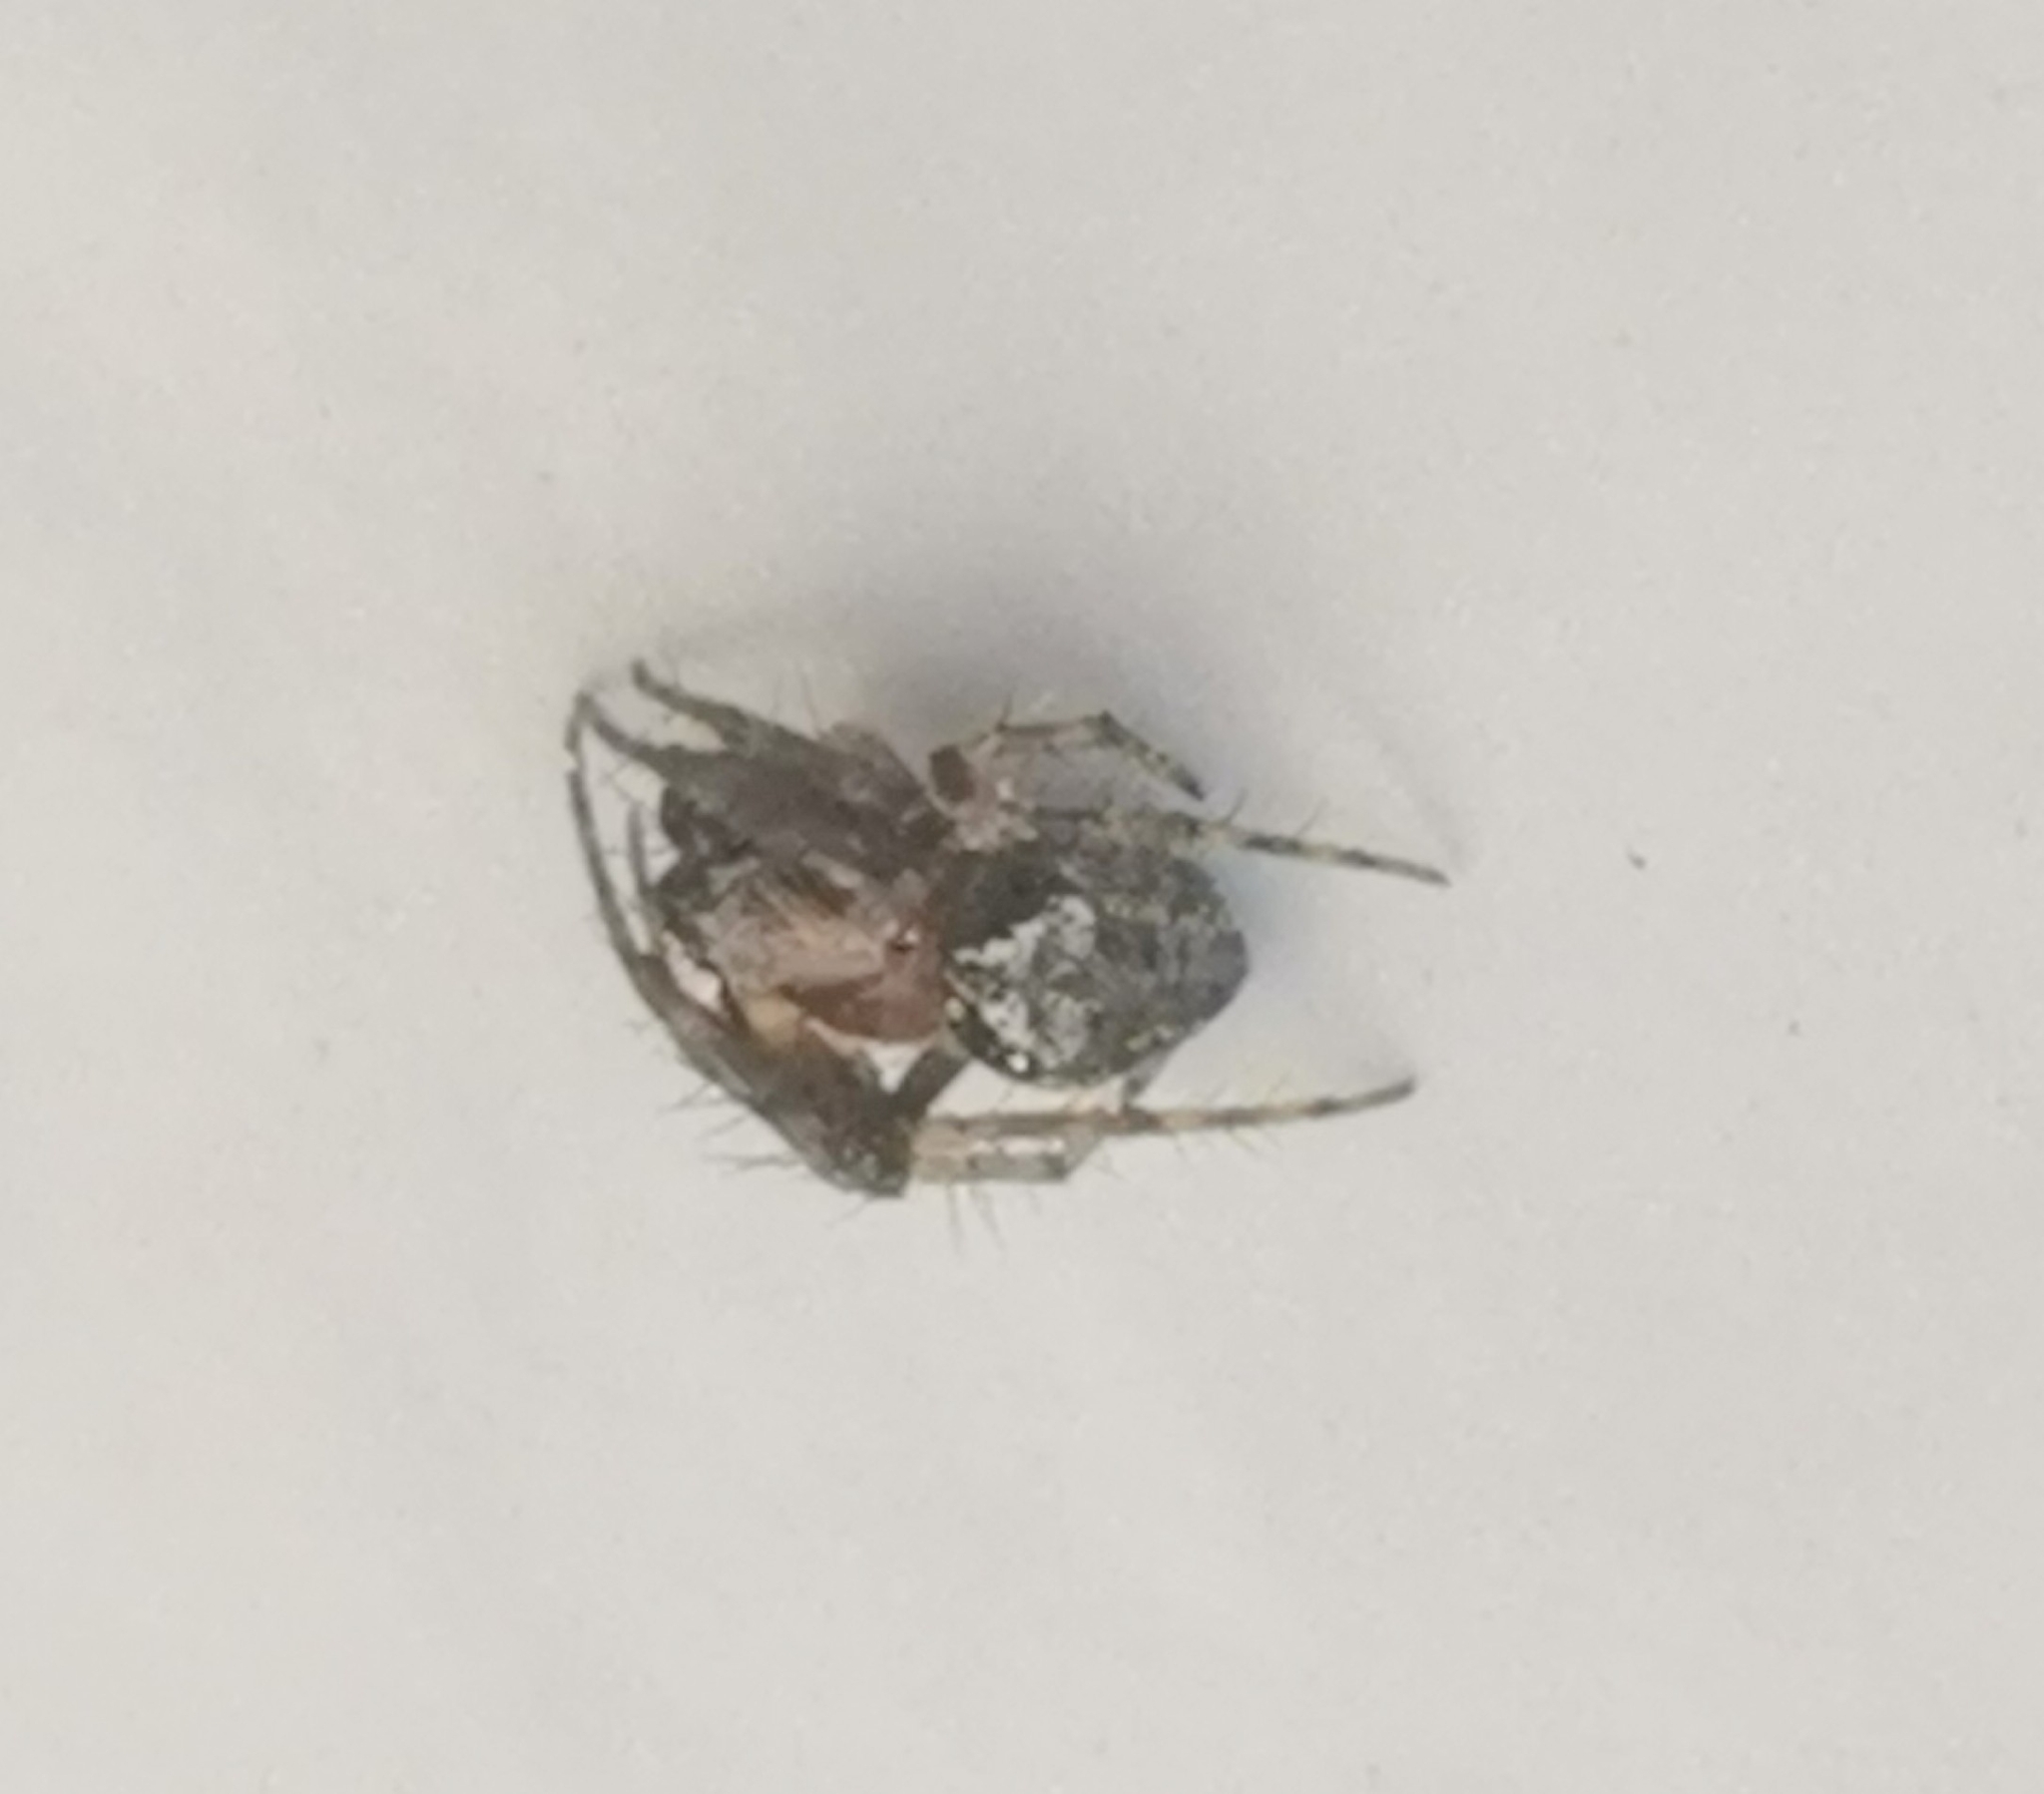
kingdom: Animalia
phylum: Arthropoda
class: Arachnida
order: Araneae
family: Araneidae
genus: Araneus
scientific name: Araneus sturmi
